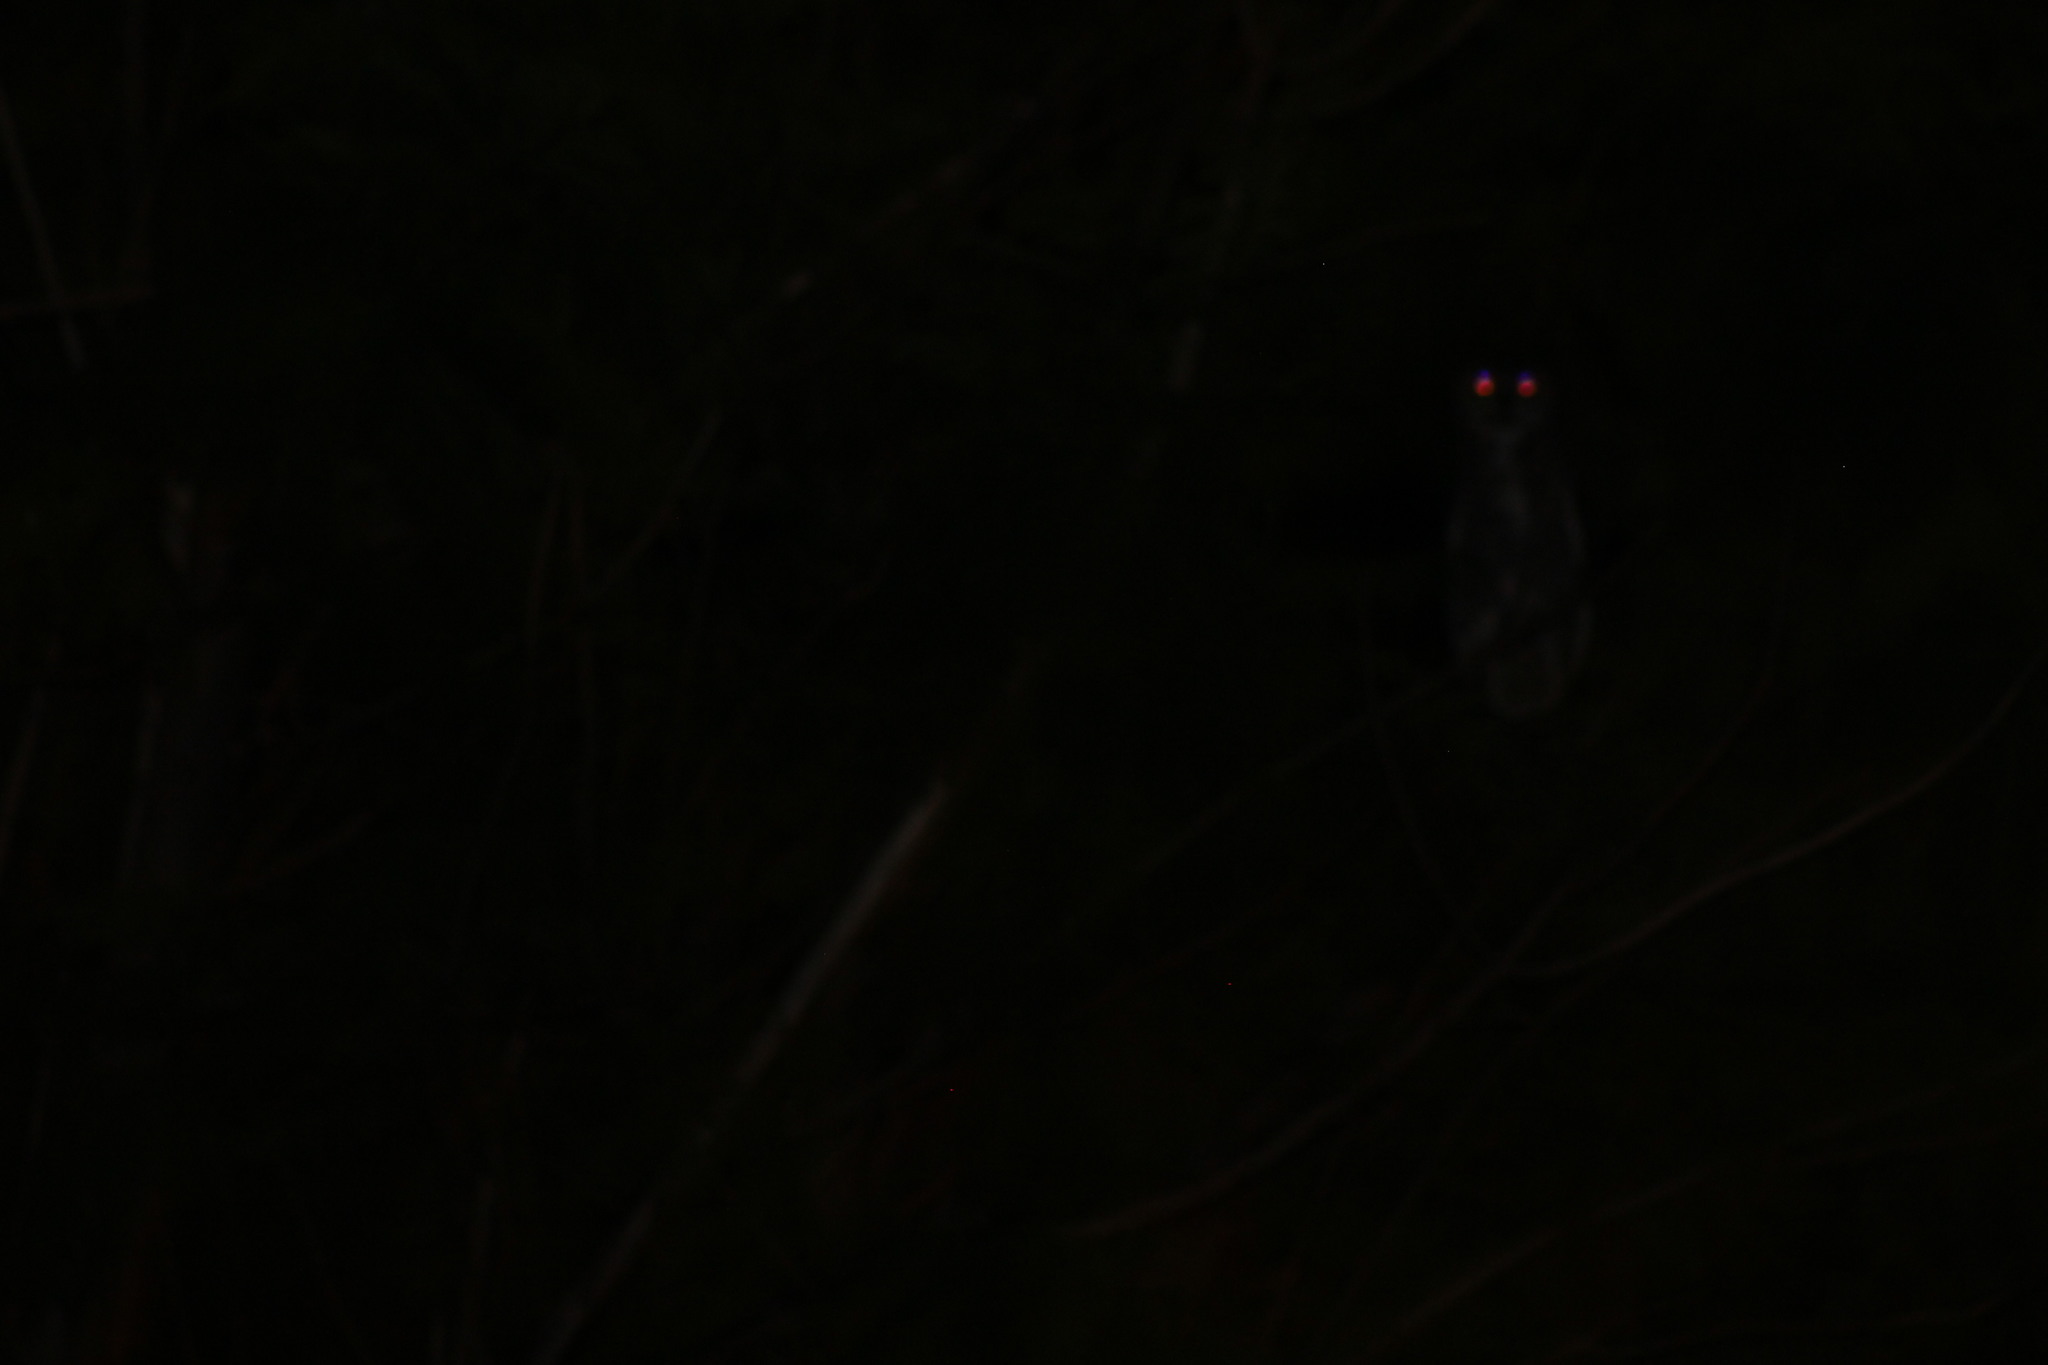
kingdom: Animalia
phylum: Chordata
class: Aves
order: Strigiformes
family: Strigidae
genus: Bubo
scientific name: Bubo virginianus
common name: Great horned owl
